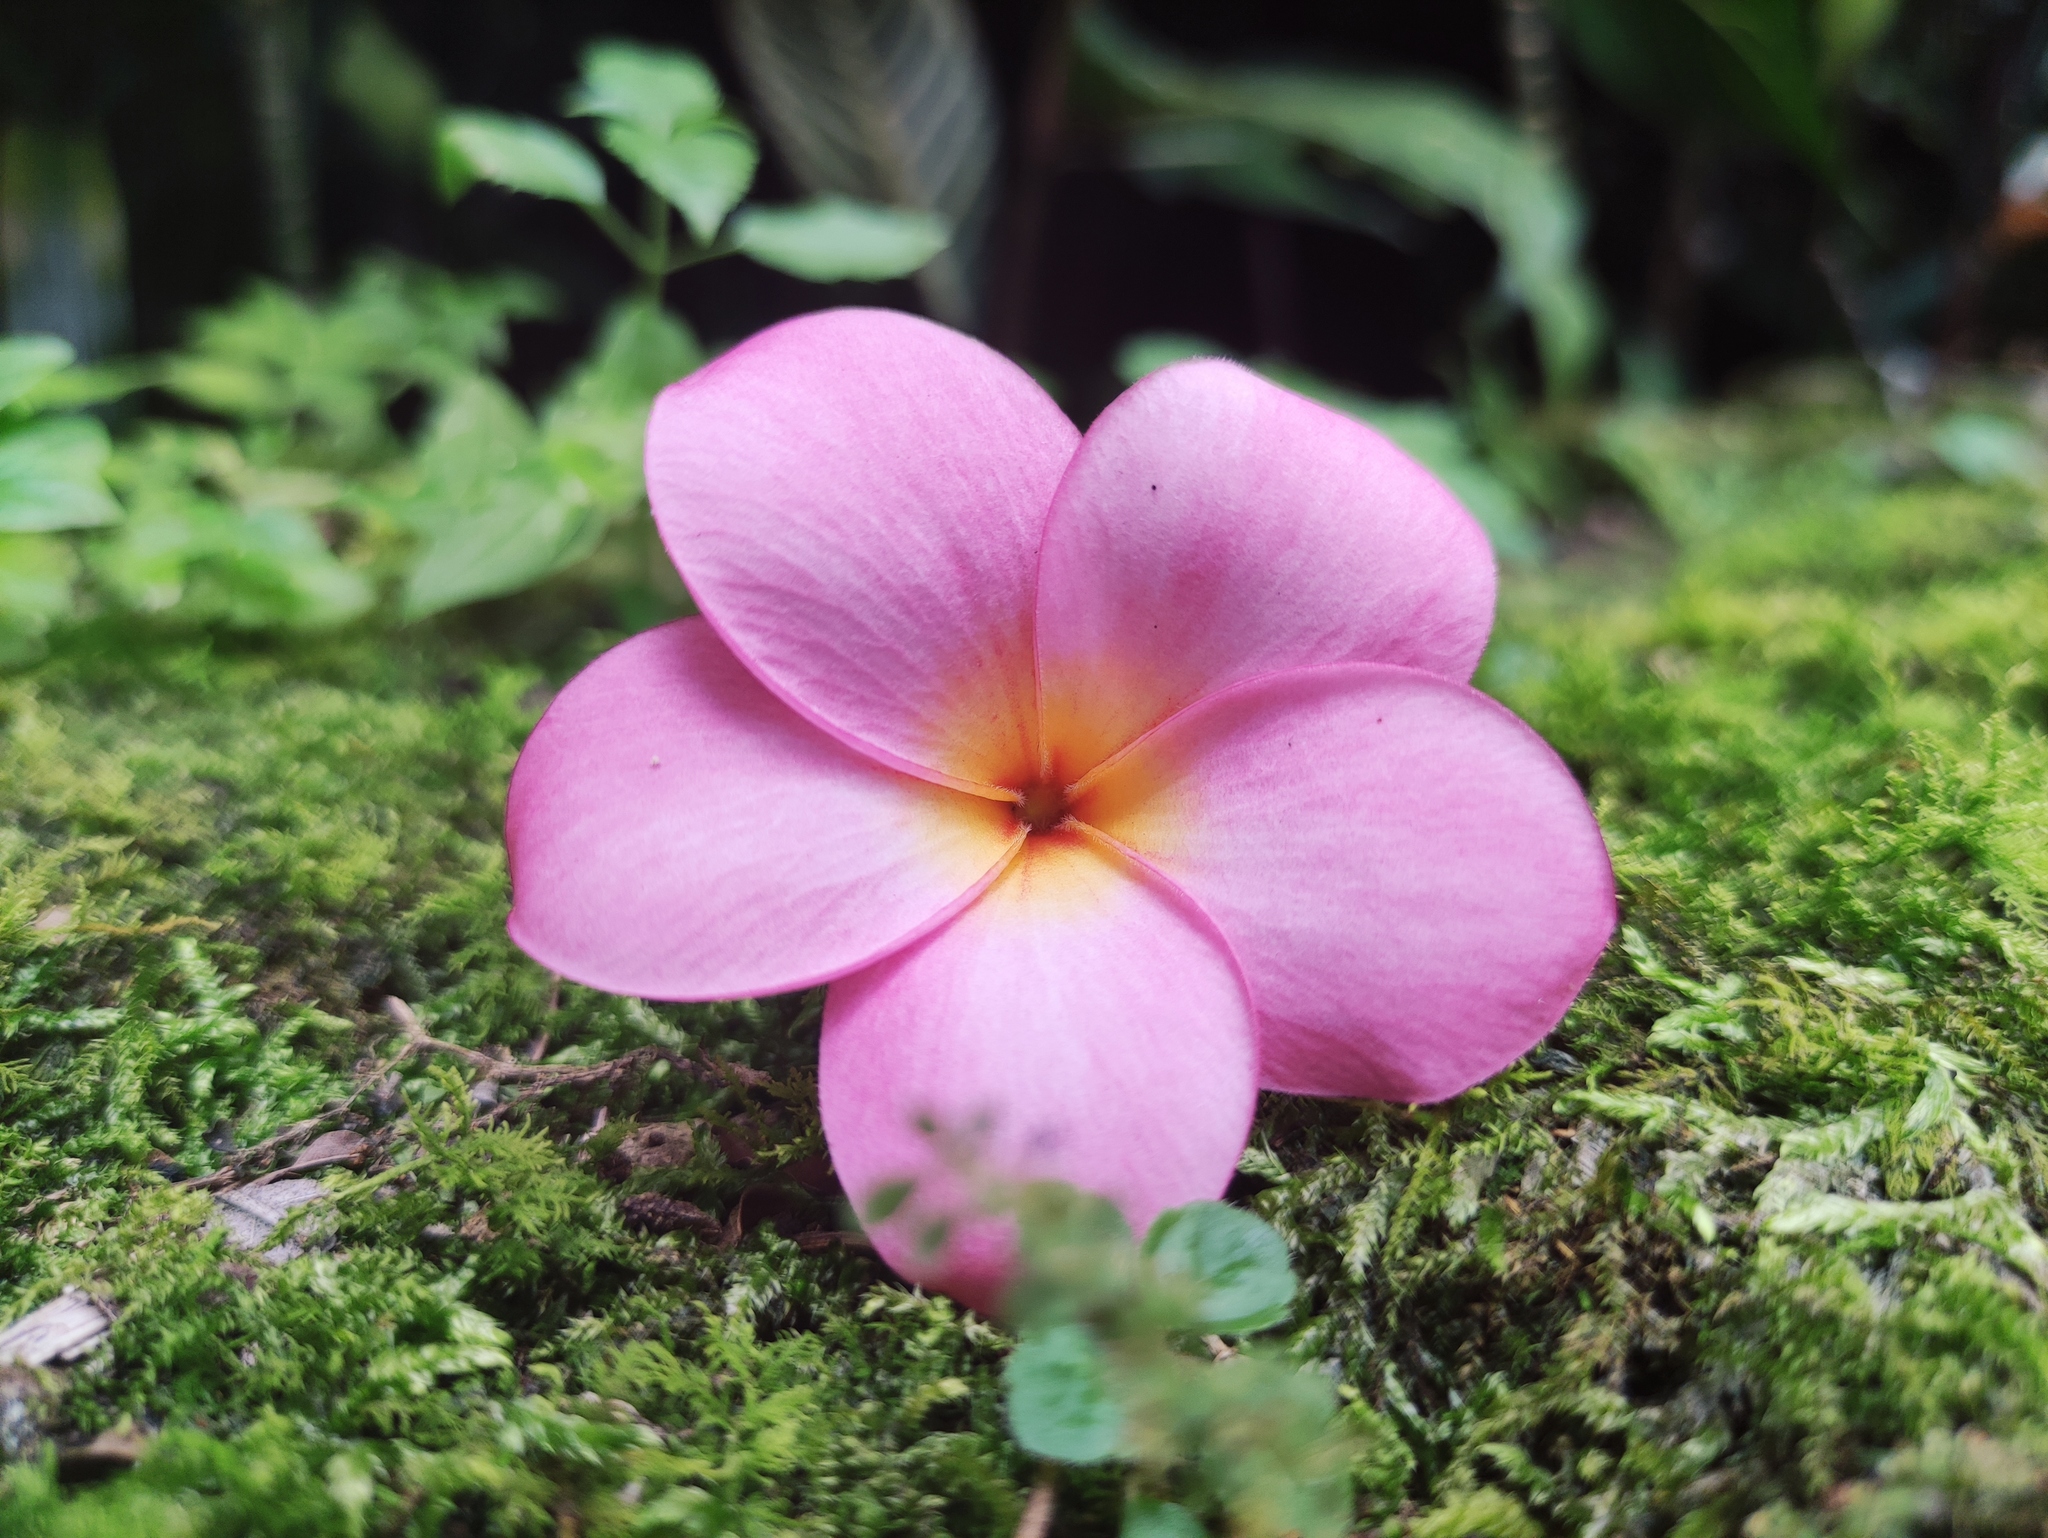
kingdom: Plantae
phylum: Tracheophyta
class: Magnoliopsida
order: Gentianales
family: Apocynaceae
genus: Plumeria
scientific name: Plumeria rubra
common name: Pagoda-tree
